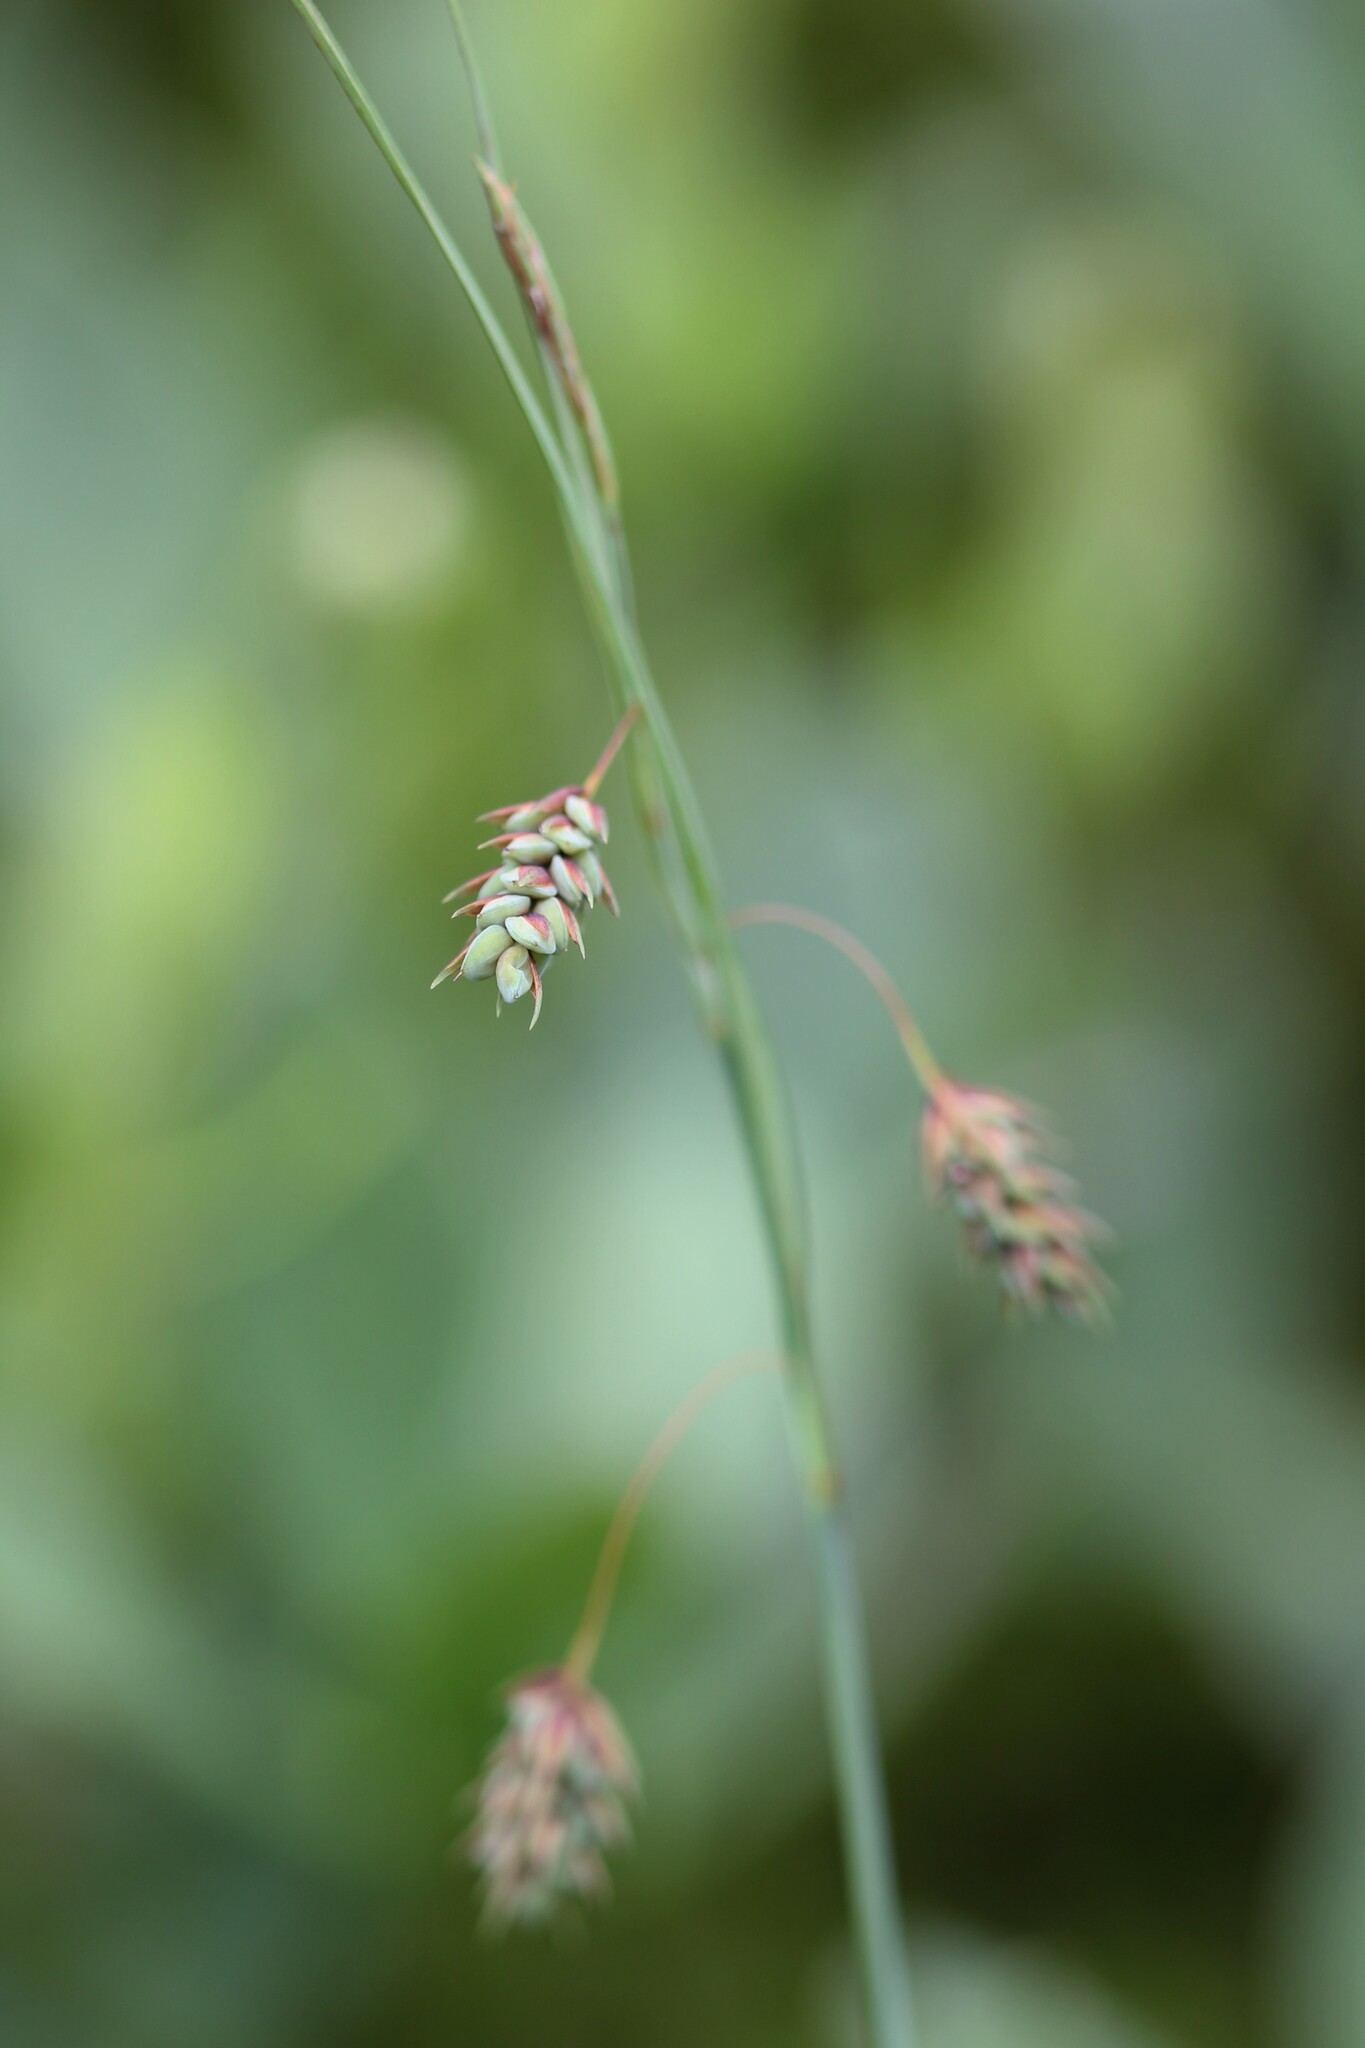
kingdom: Plantae
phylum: Tracheophyta
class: Liliopsida
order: Poales
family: Cyperaceae
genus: Carex
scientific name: Carex magellanica
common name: Bog sedge
